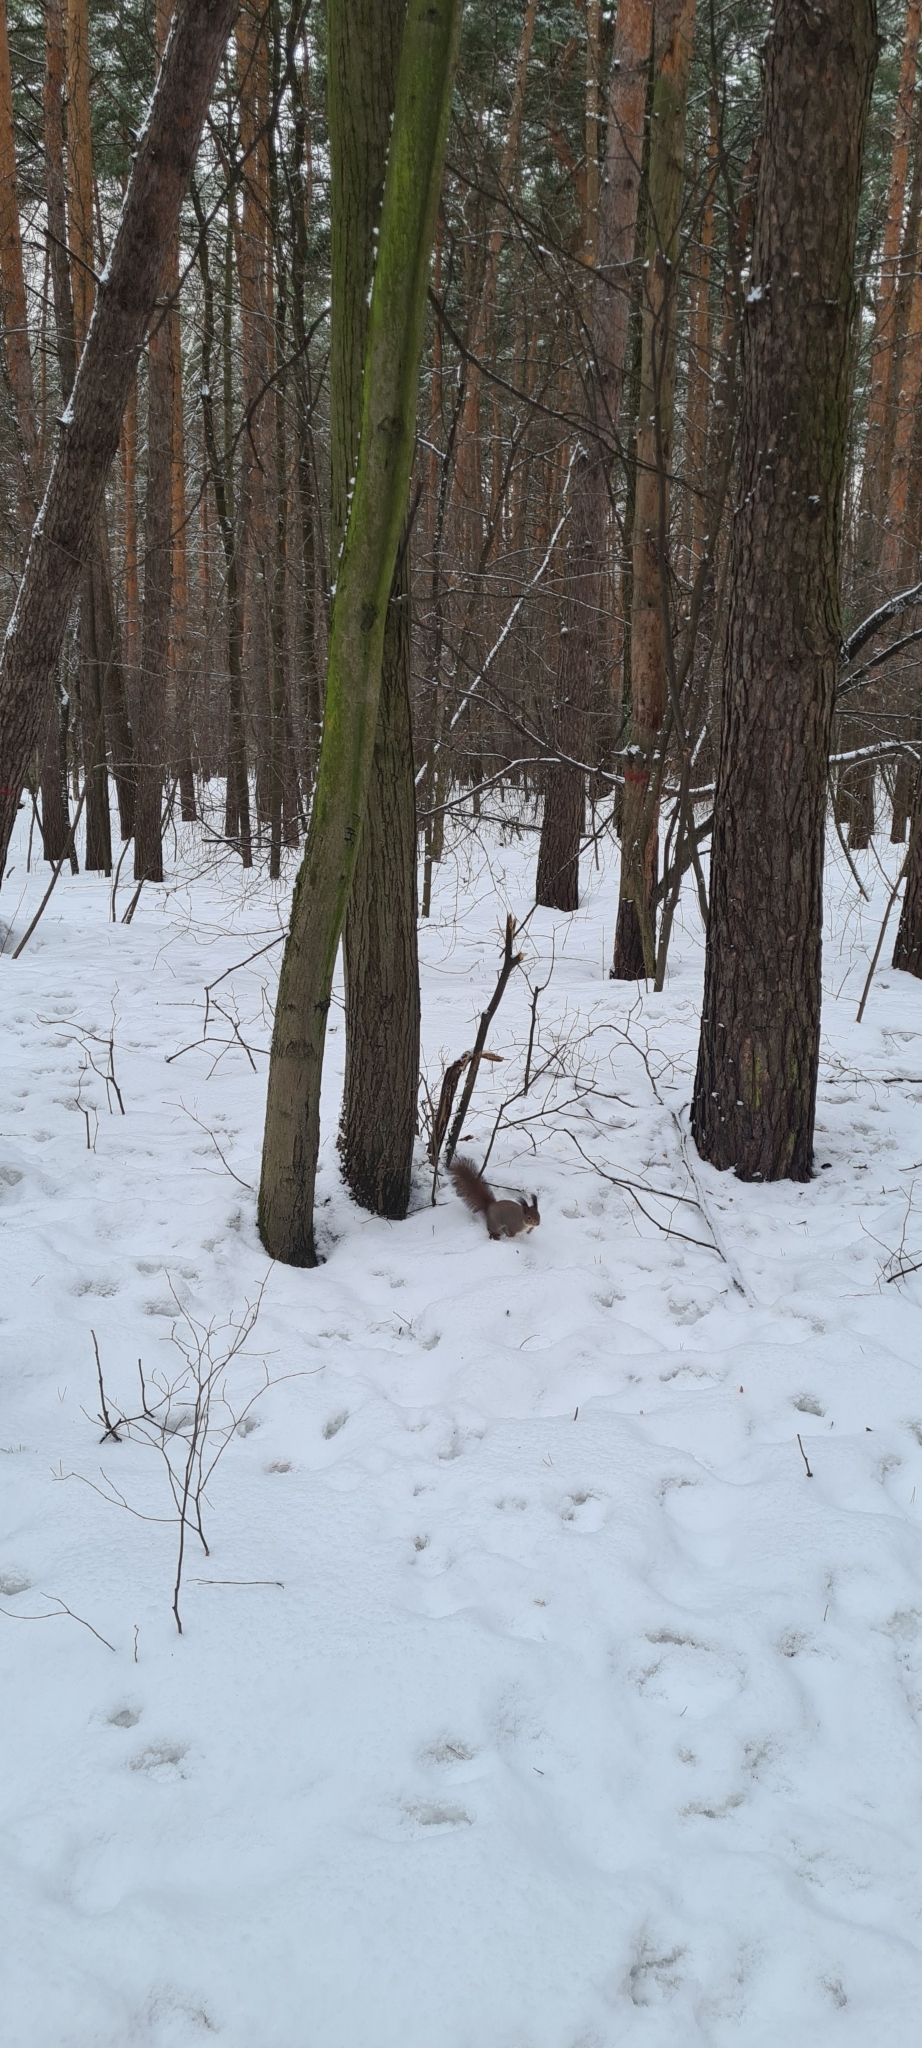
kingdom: Animalia
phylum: Chordata
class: Mammalia
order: Rodentia
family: Sciuridae
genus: Sciurus
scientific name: Sciurus vulgaris
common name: Eurasian red squirrel
